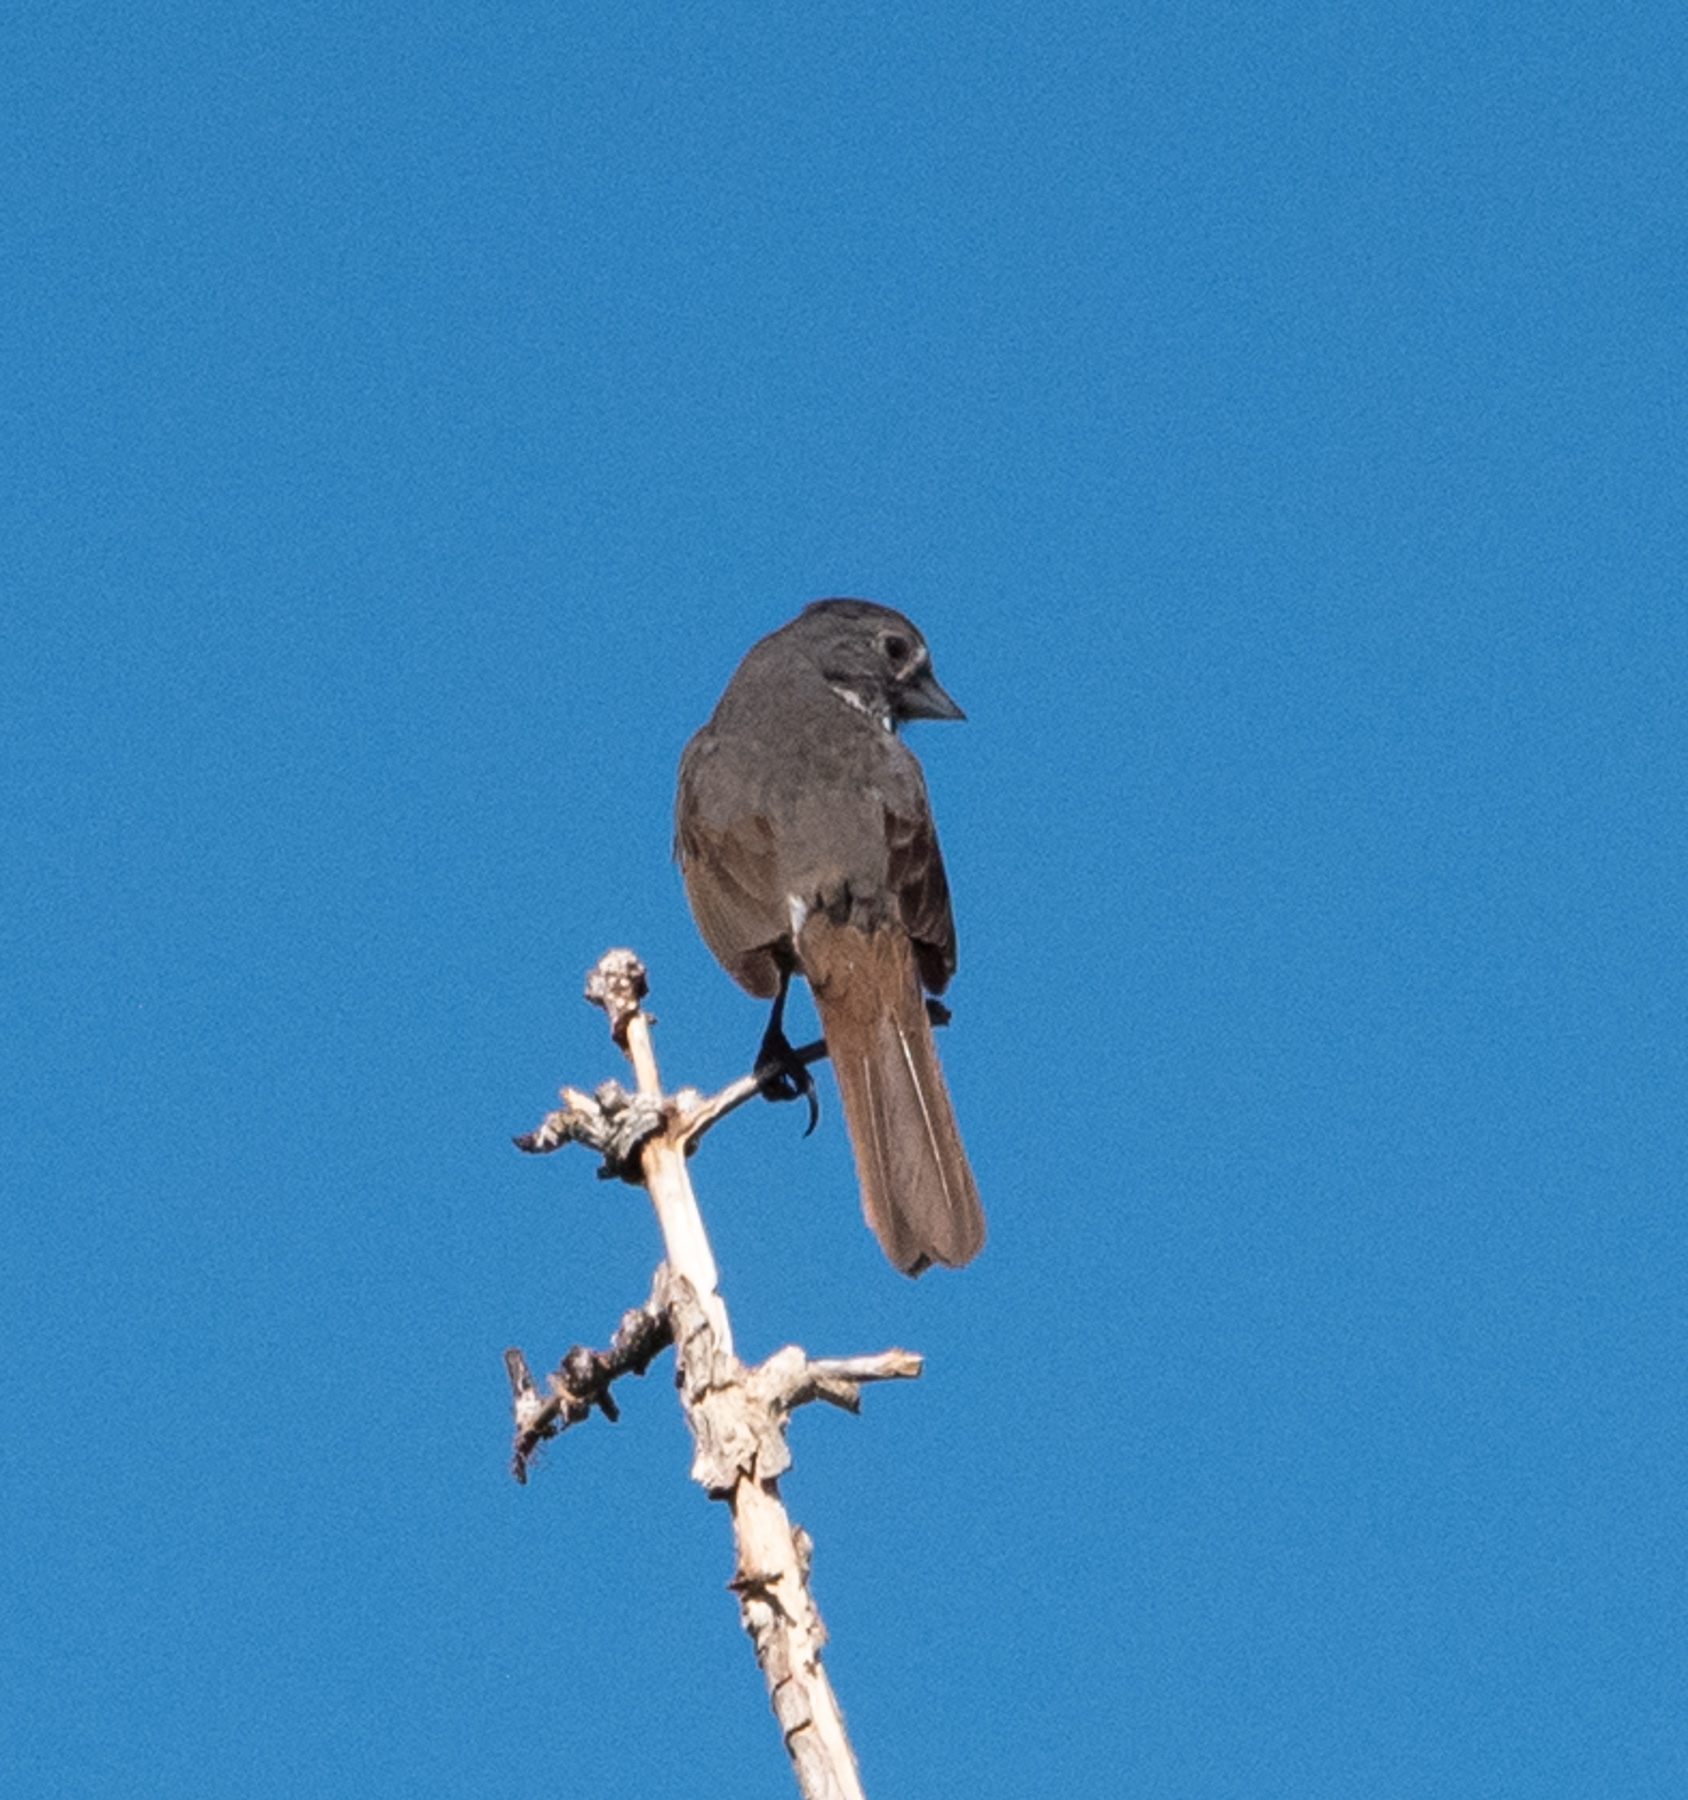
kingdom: Animalia
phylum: Chordata
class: Aves
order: Passeriformes
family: Passerellidae
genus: Passerella
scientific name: Passerella iliaca
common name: Fox sparrow
